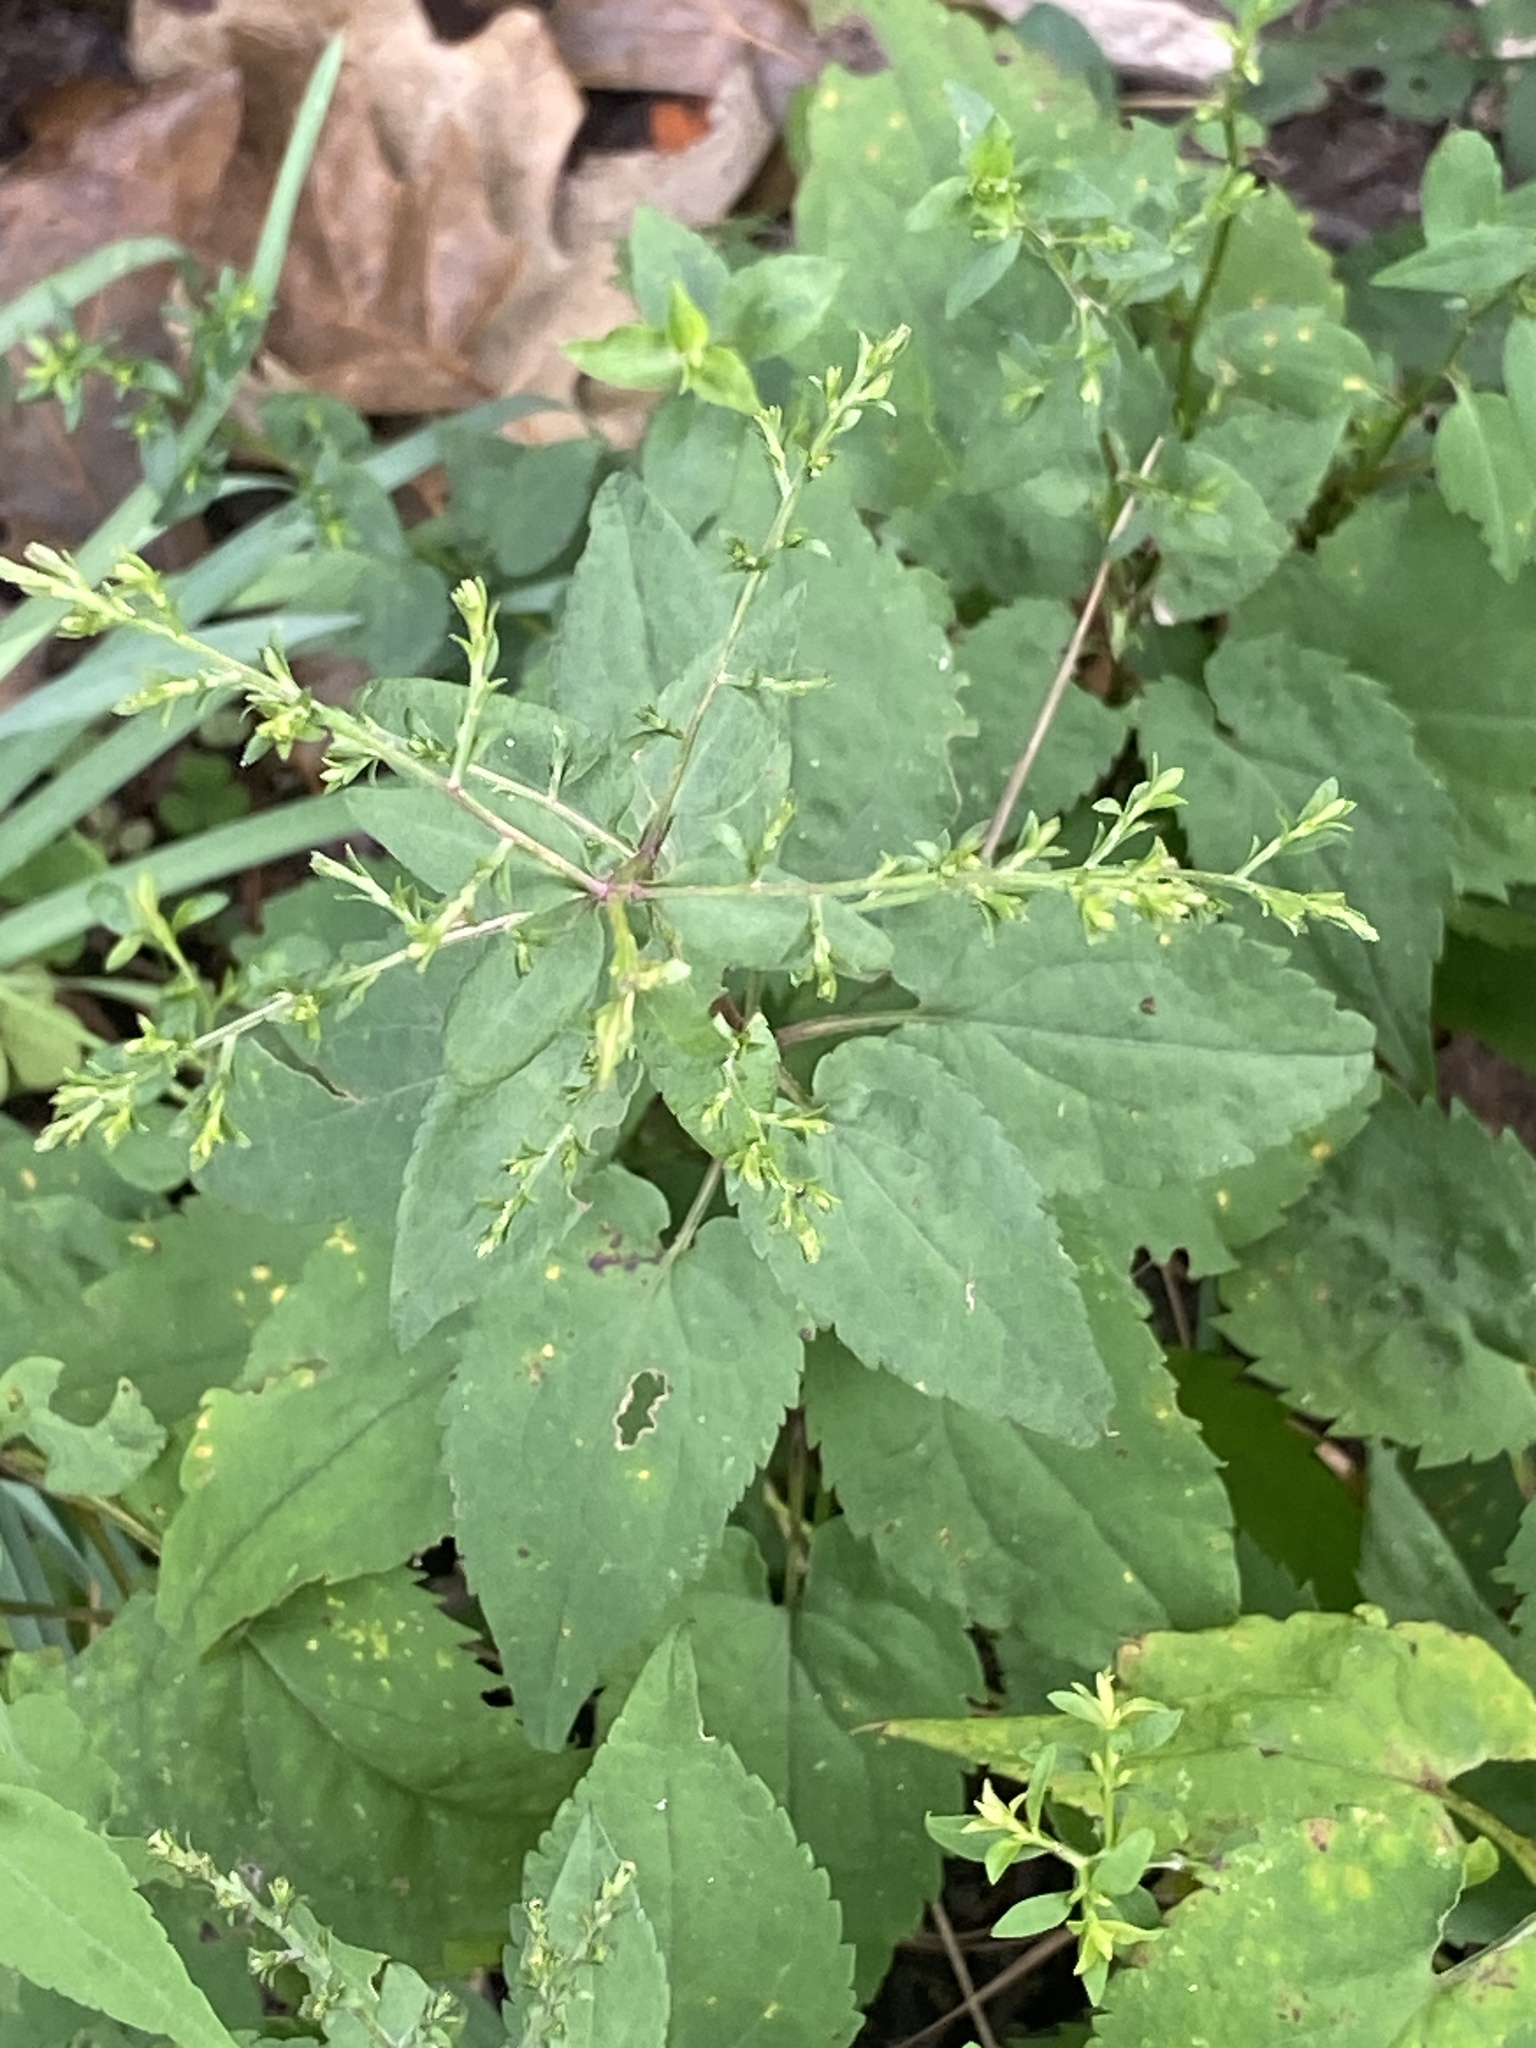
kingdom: Plantae
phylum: Tracheophyta
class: Magnoliopsida
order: Asterales
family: Asteraceae
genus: Symphyotrichum
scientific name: Symphyotrichum cordifolium
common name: Beeweed
